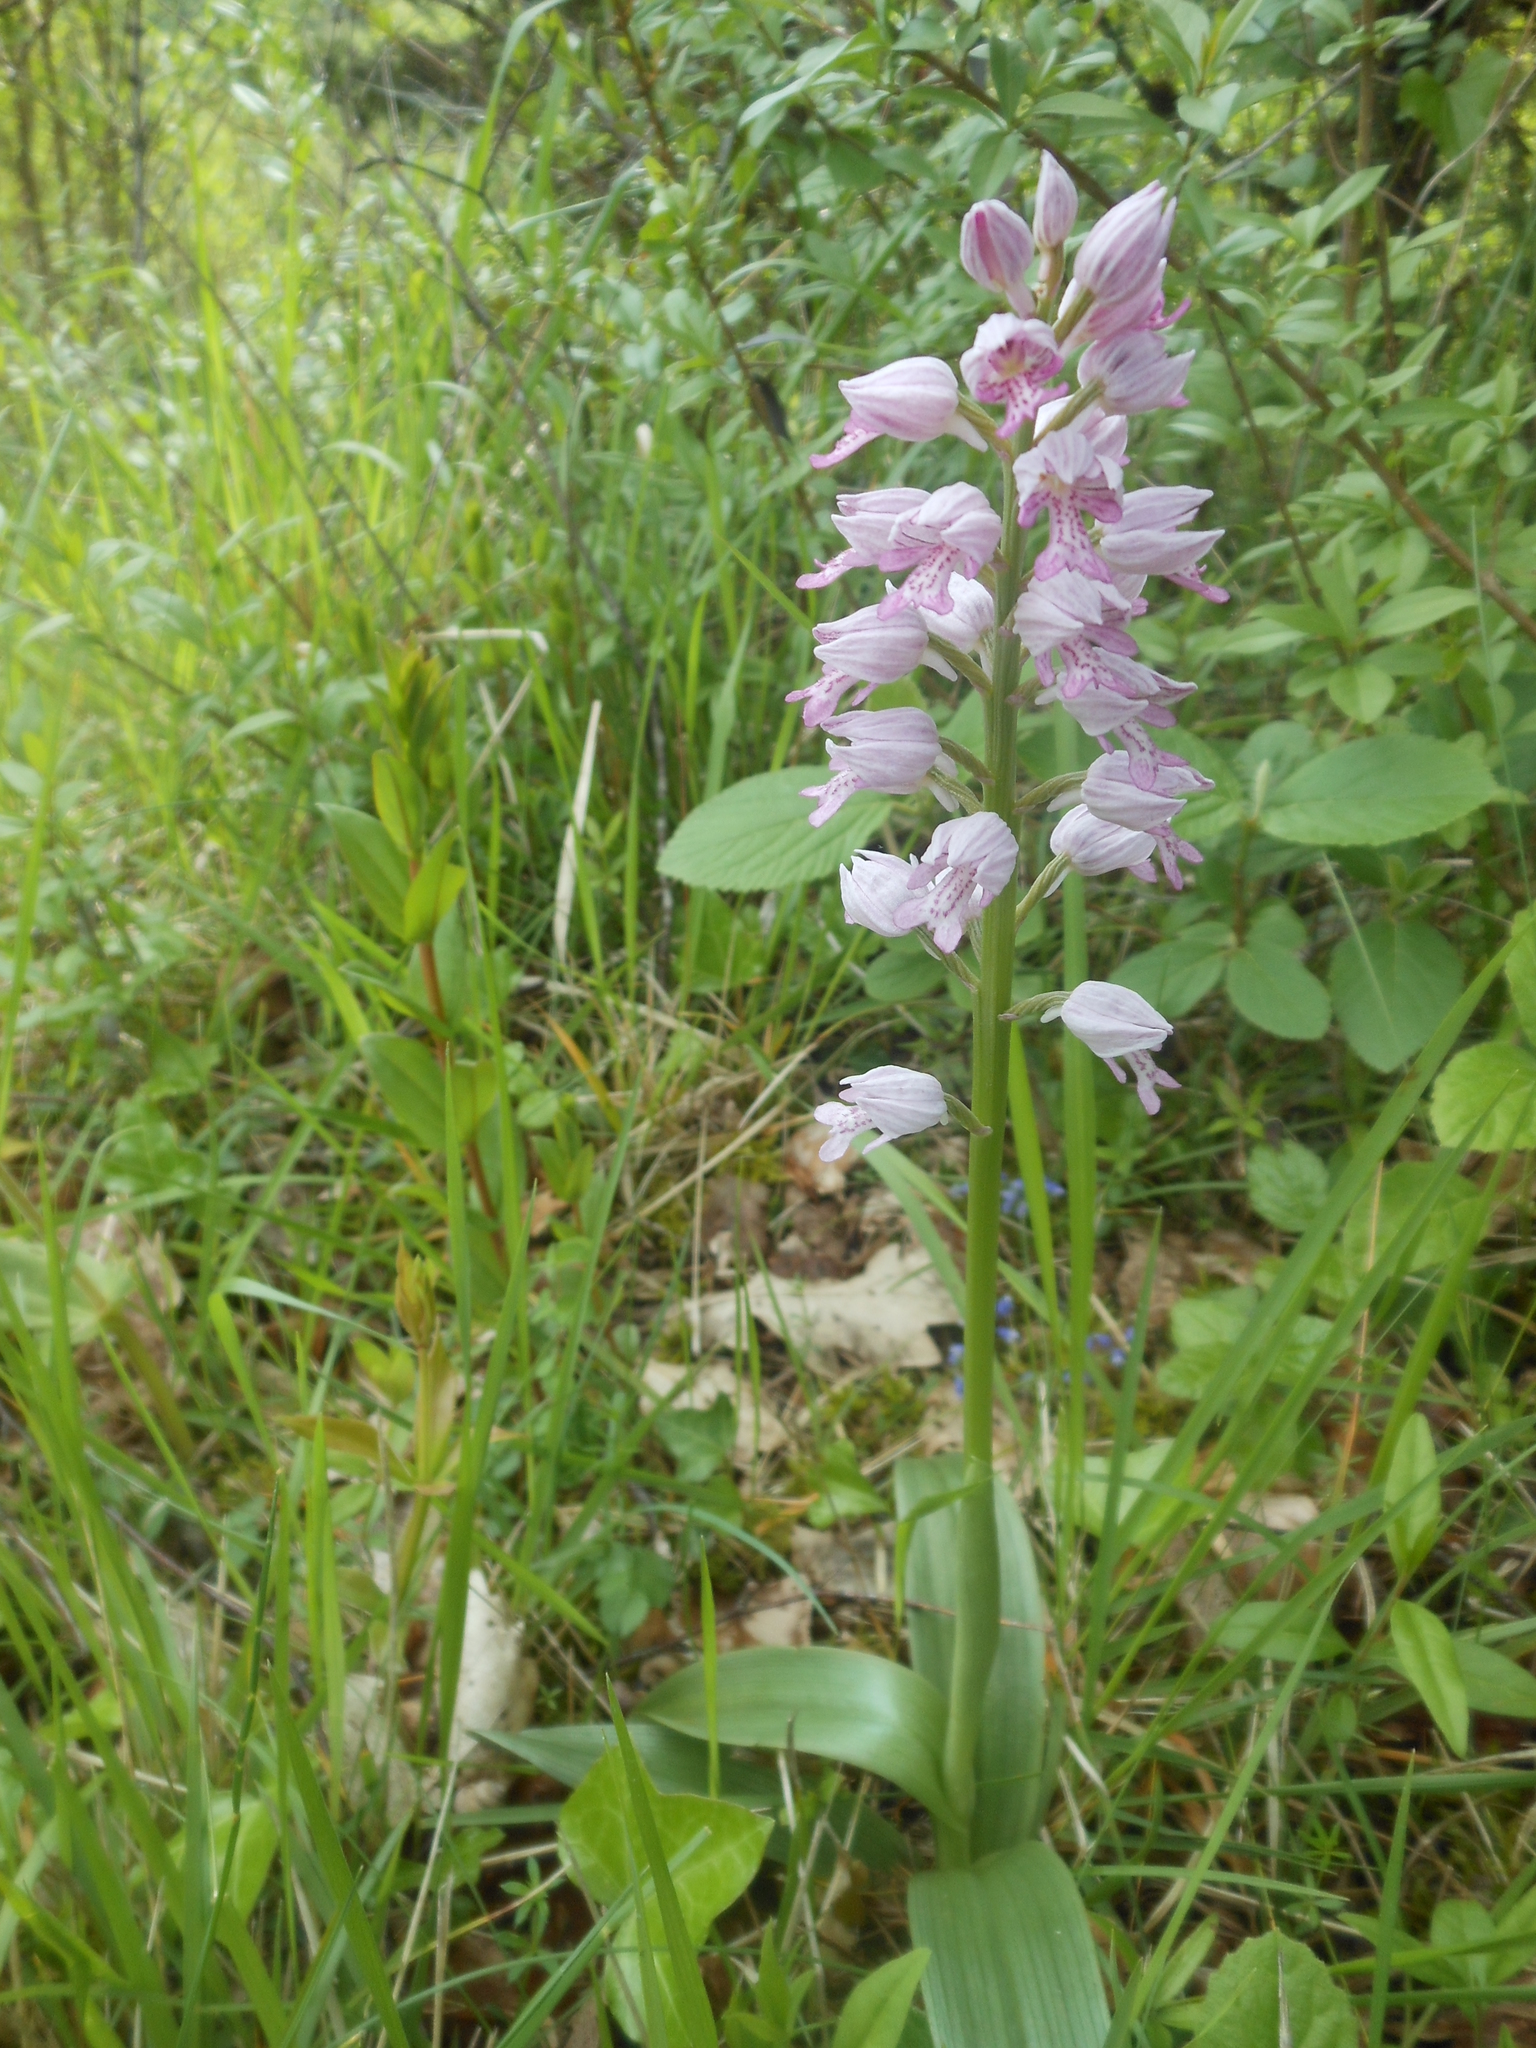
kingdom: Plantae
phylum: Tracheophyta
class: Liliopsida
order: Asparagales
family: Orchidaceae
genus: Orchis
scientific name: Orchis militaris
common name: Military orchid
